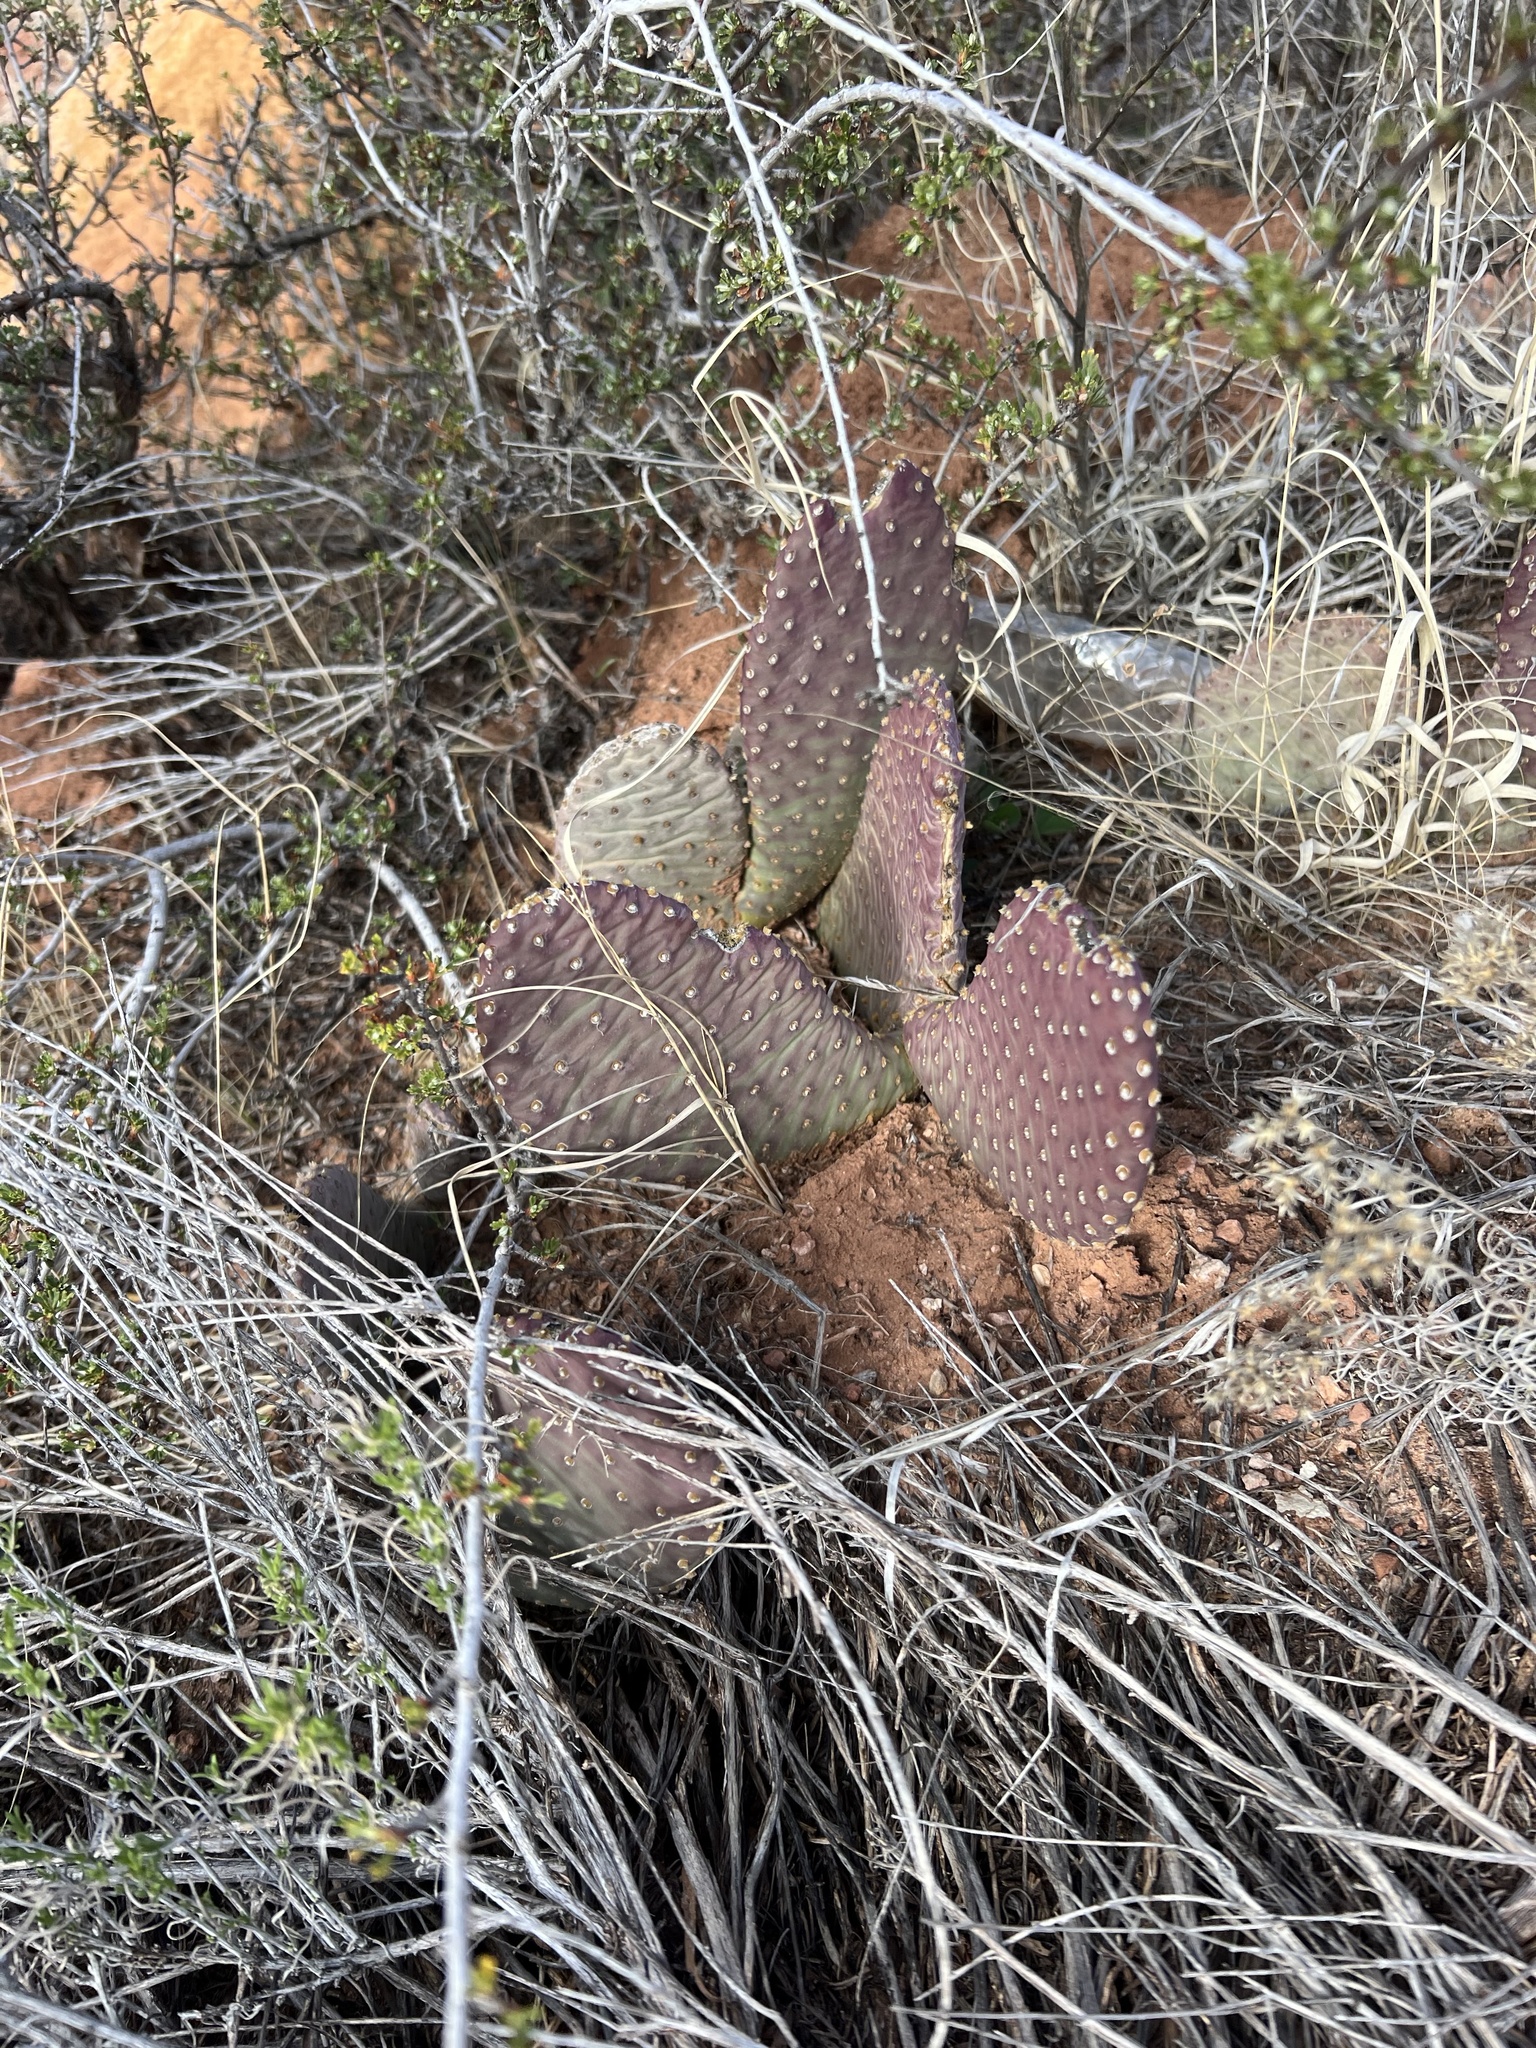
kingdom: Plantae
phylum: Tracheophyta
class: Magnoliopsida
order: Caryophyllales
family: Cactaceae
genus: Opuntia
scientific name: Opuntia aurea
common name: Golden prickly-pear
